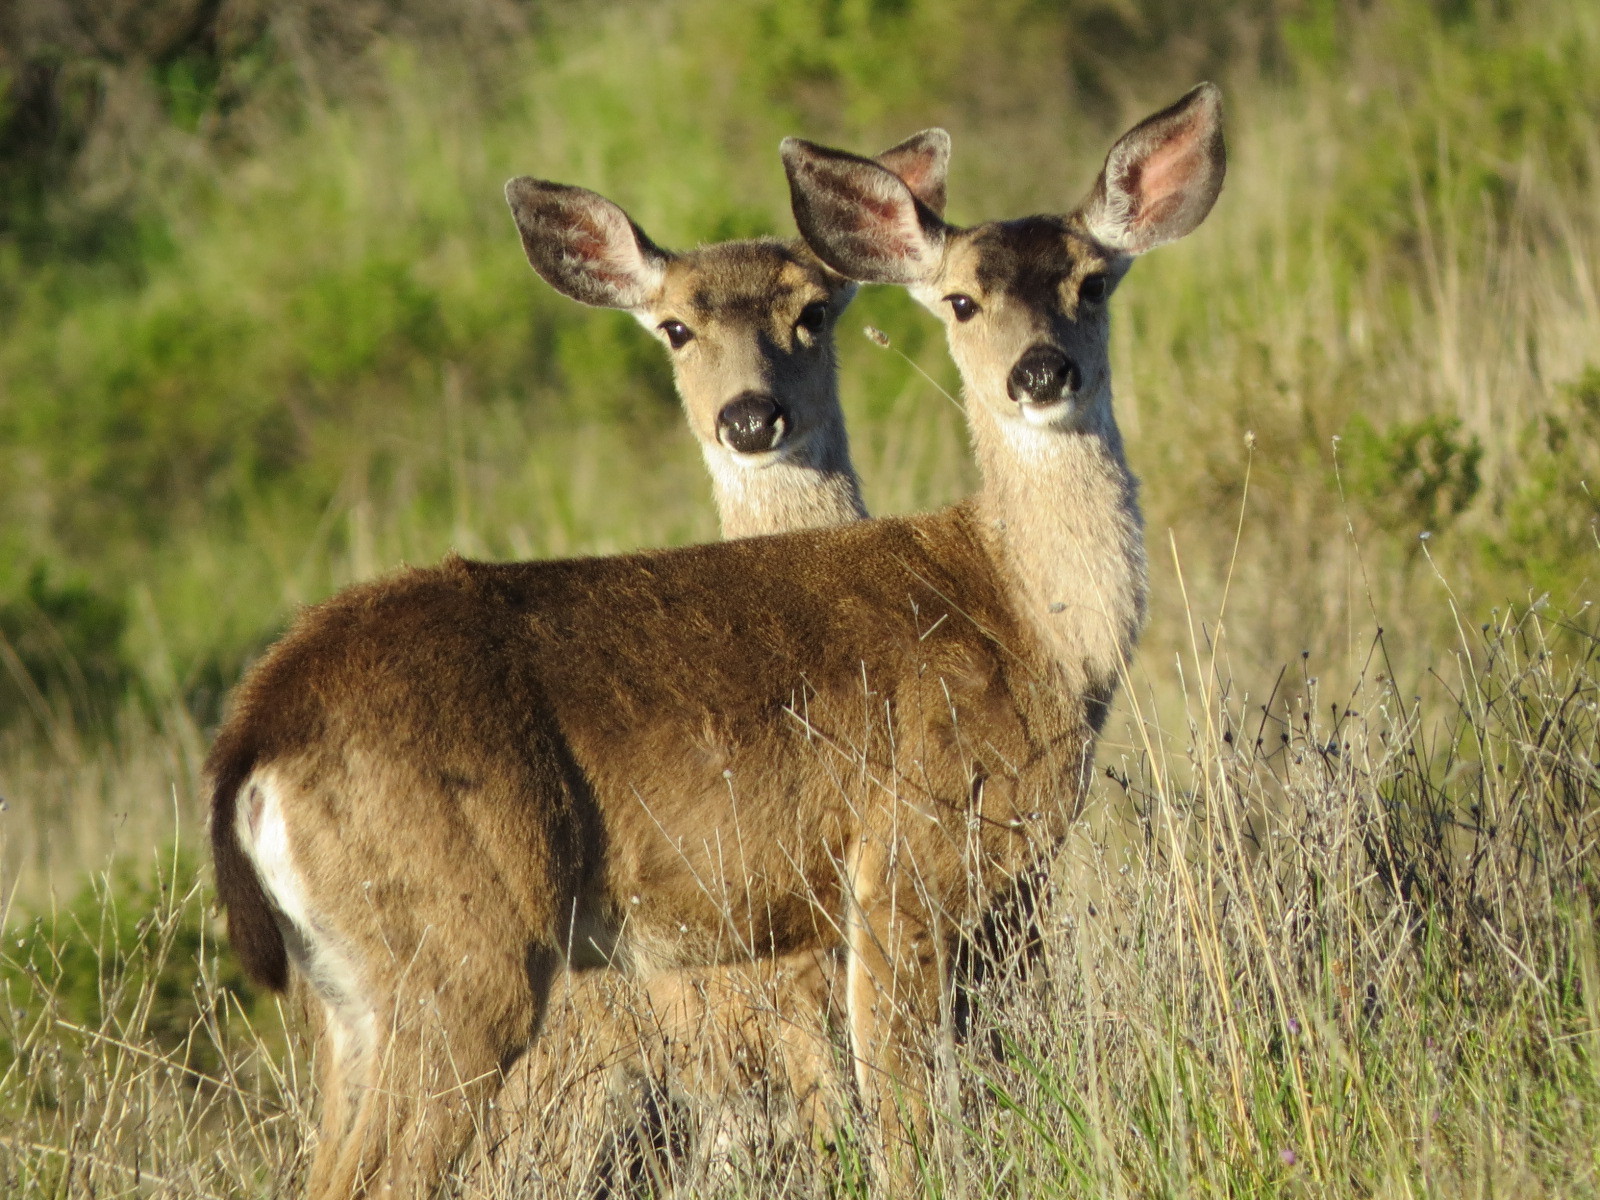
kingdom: Animalia
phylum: Chordata
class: Mammalia
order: Artiodactyla
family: Cervidae
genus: Odocoileus
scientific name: Odocoileus hemionus
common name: Mule deer
